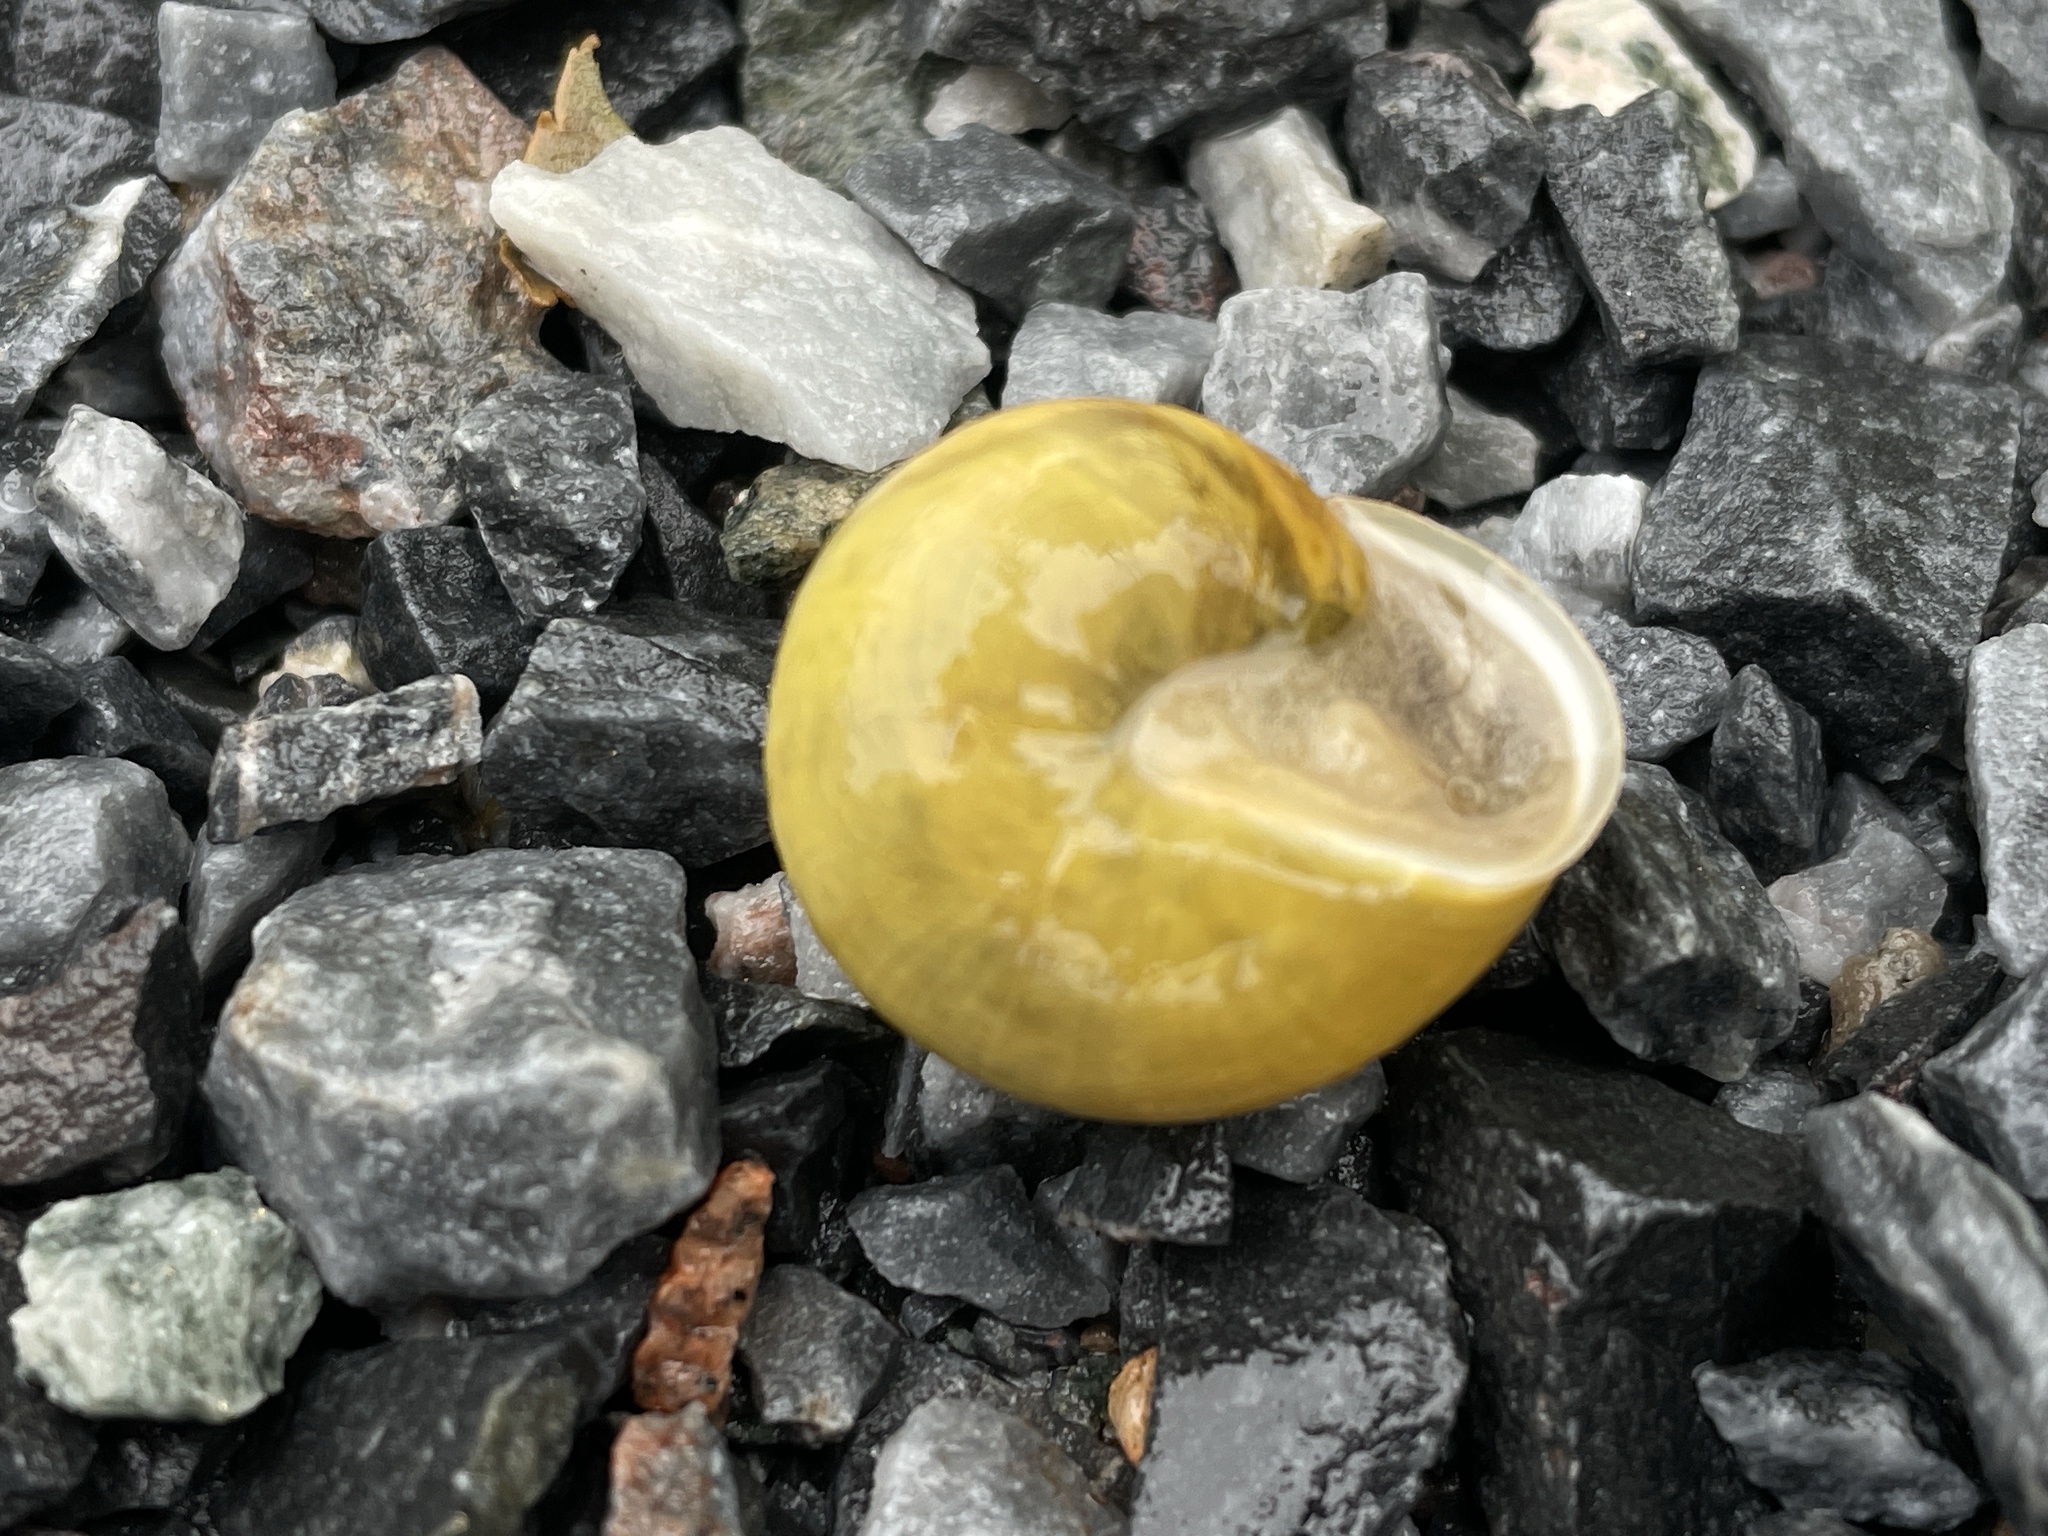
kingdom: Animalia
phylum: Mollusca
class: Gastropoda
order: Stylommatophora
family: Helicidae
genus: Cepaea
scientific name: Cepaea hortensis
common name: White-lip gardensnail
